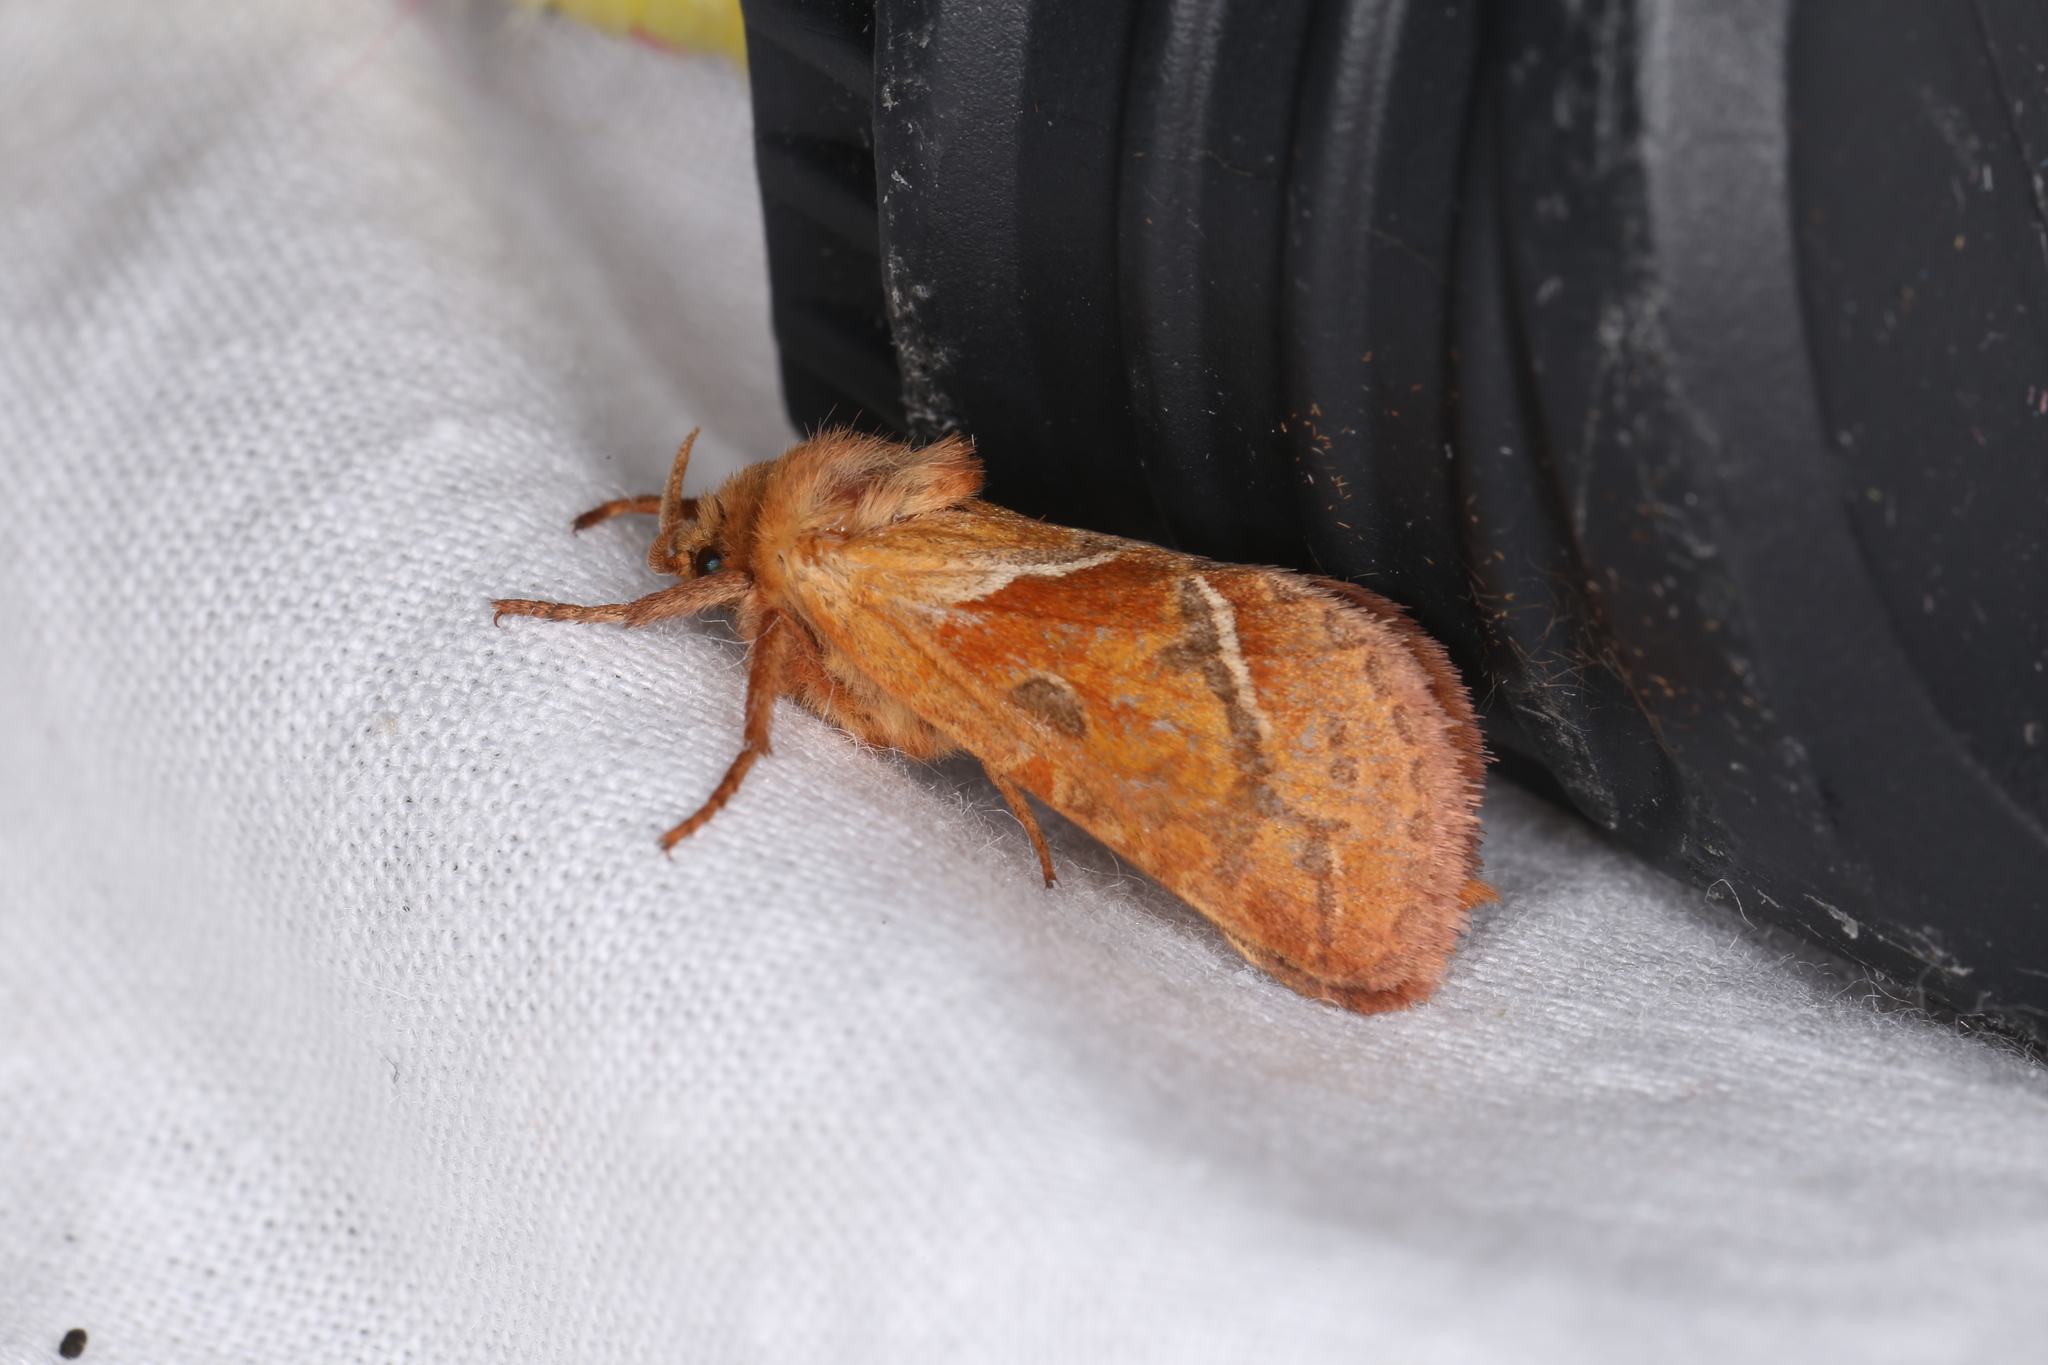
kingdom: Animalia
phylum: Arthropoda
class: Insecta
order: Lepidoptera
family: Hepialidae
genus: Triodia
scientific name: Triodia sylvina
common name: Orange swift
